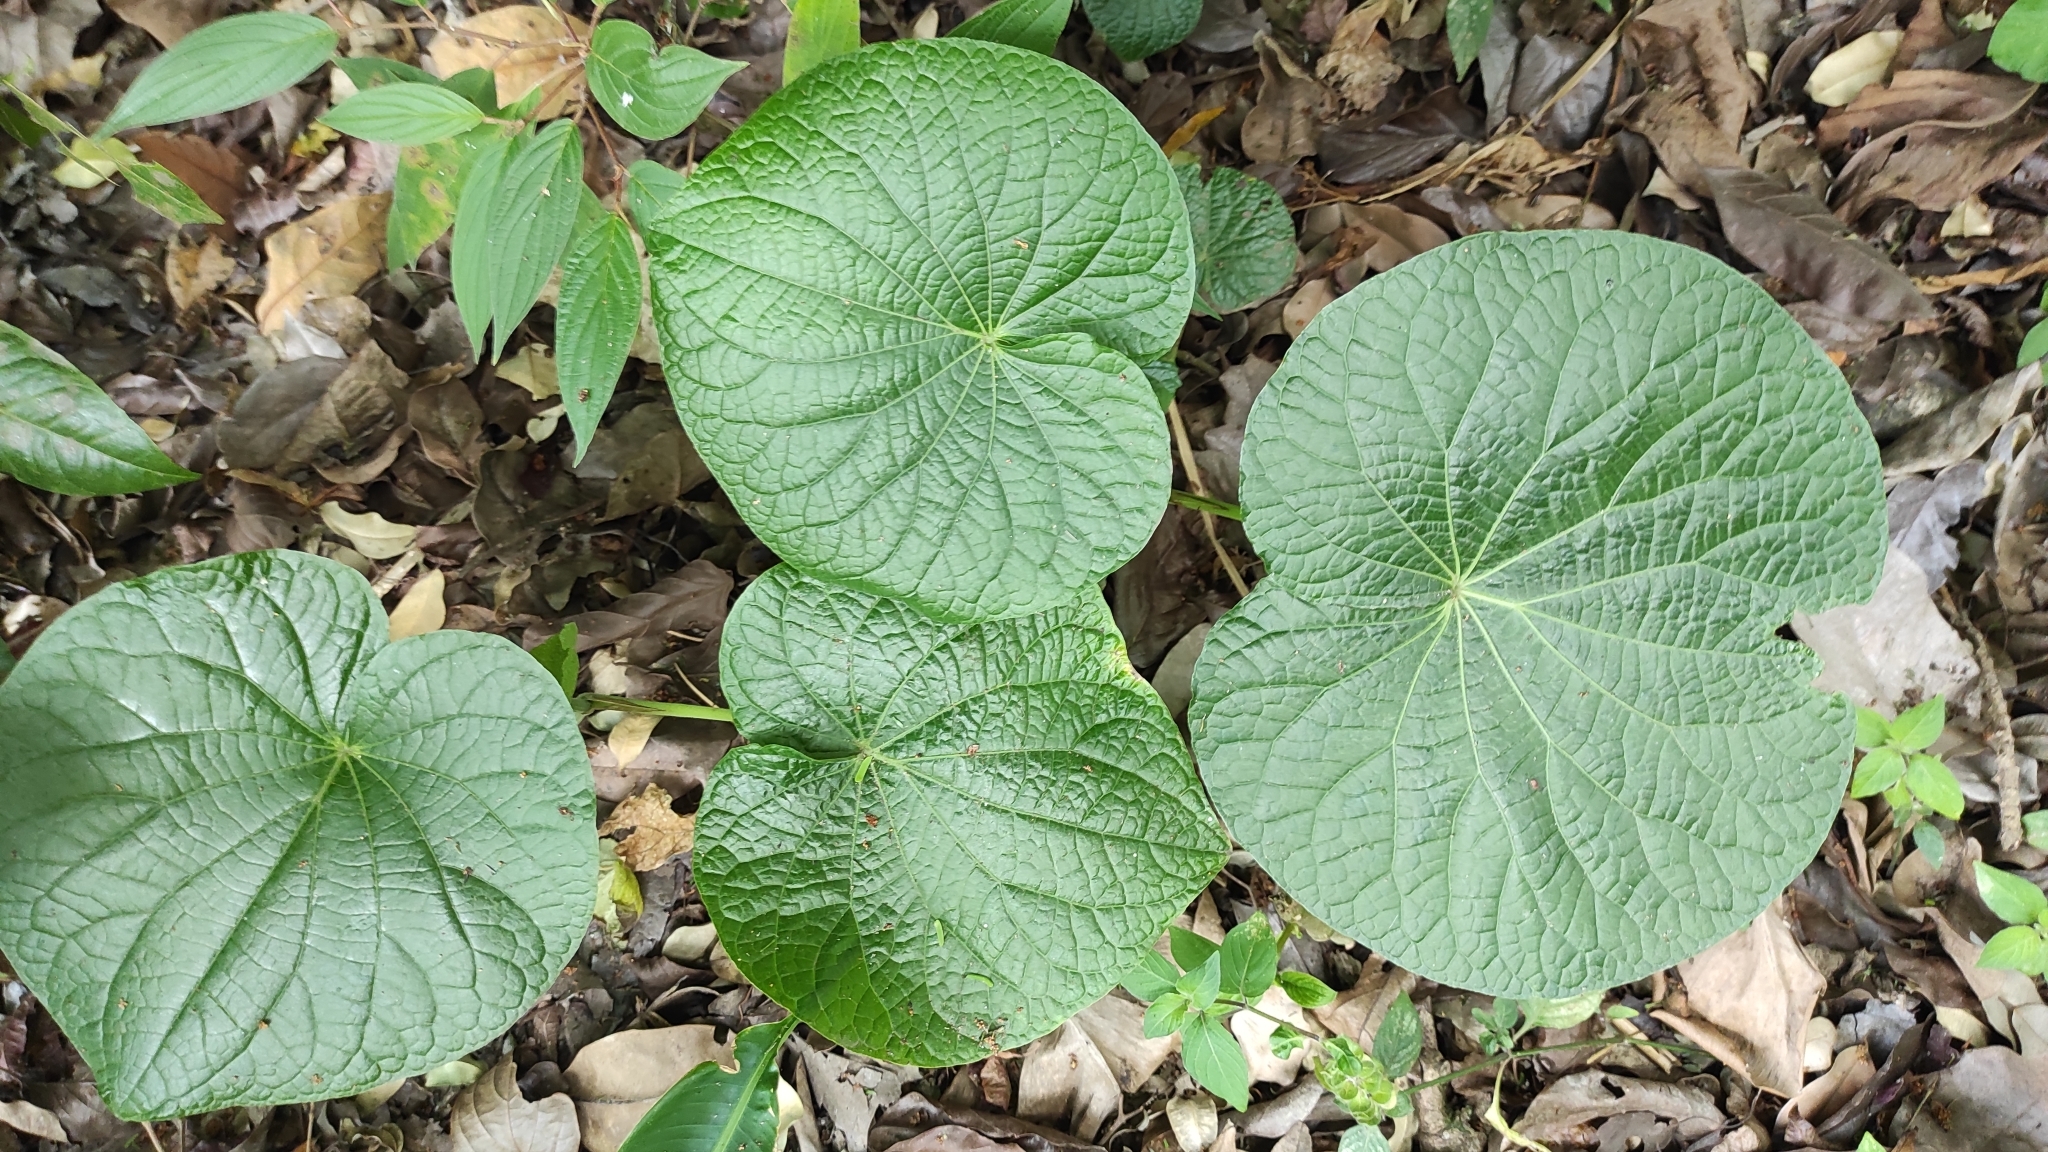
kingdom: Plantae
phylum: Tracheophyta
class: Magnoliopsida
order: Piperales
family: Piperaceae
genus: Piper
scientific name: Piper peltatum
